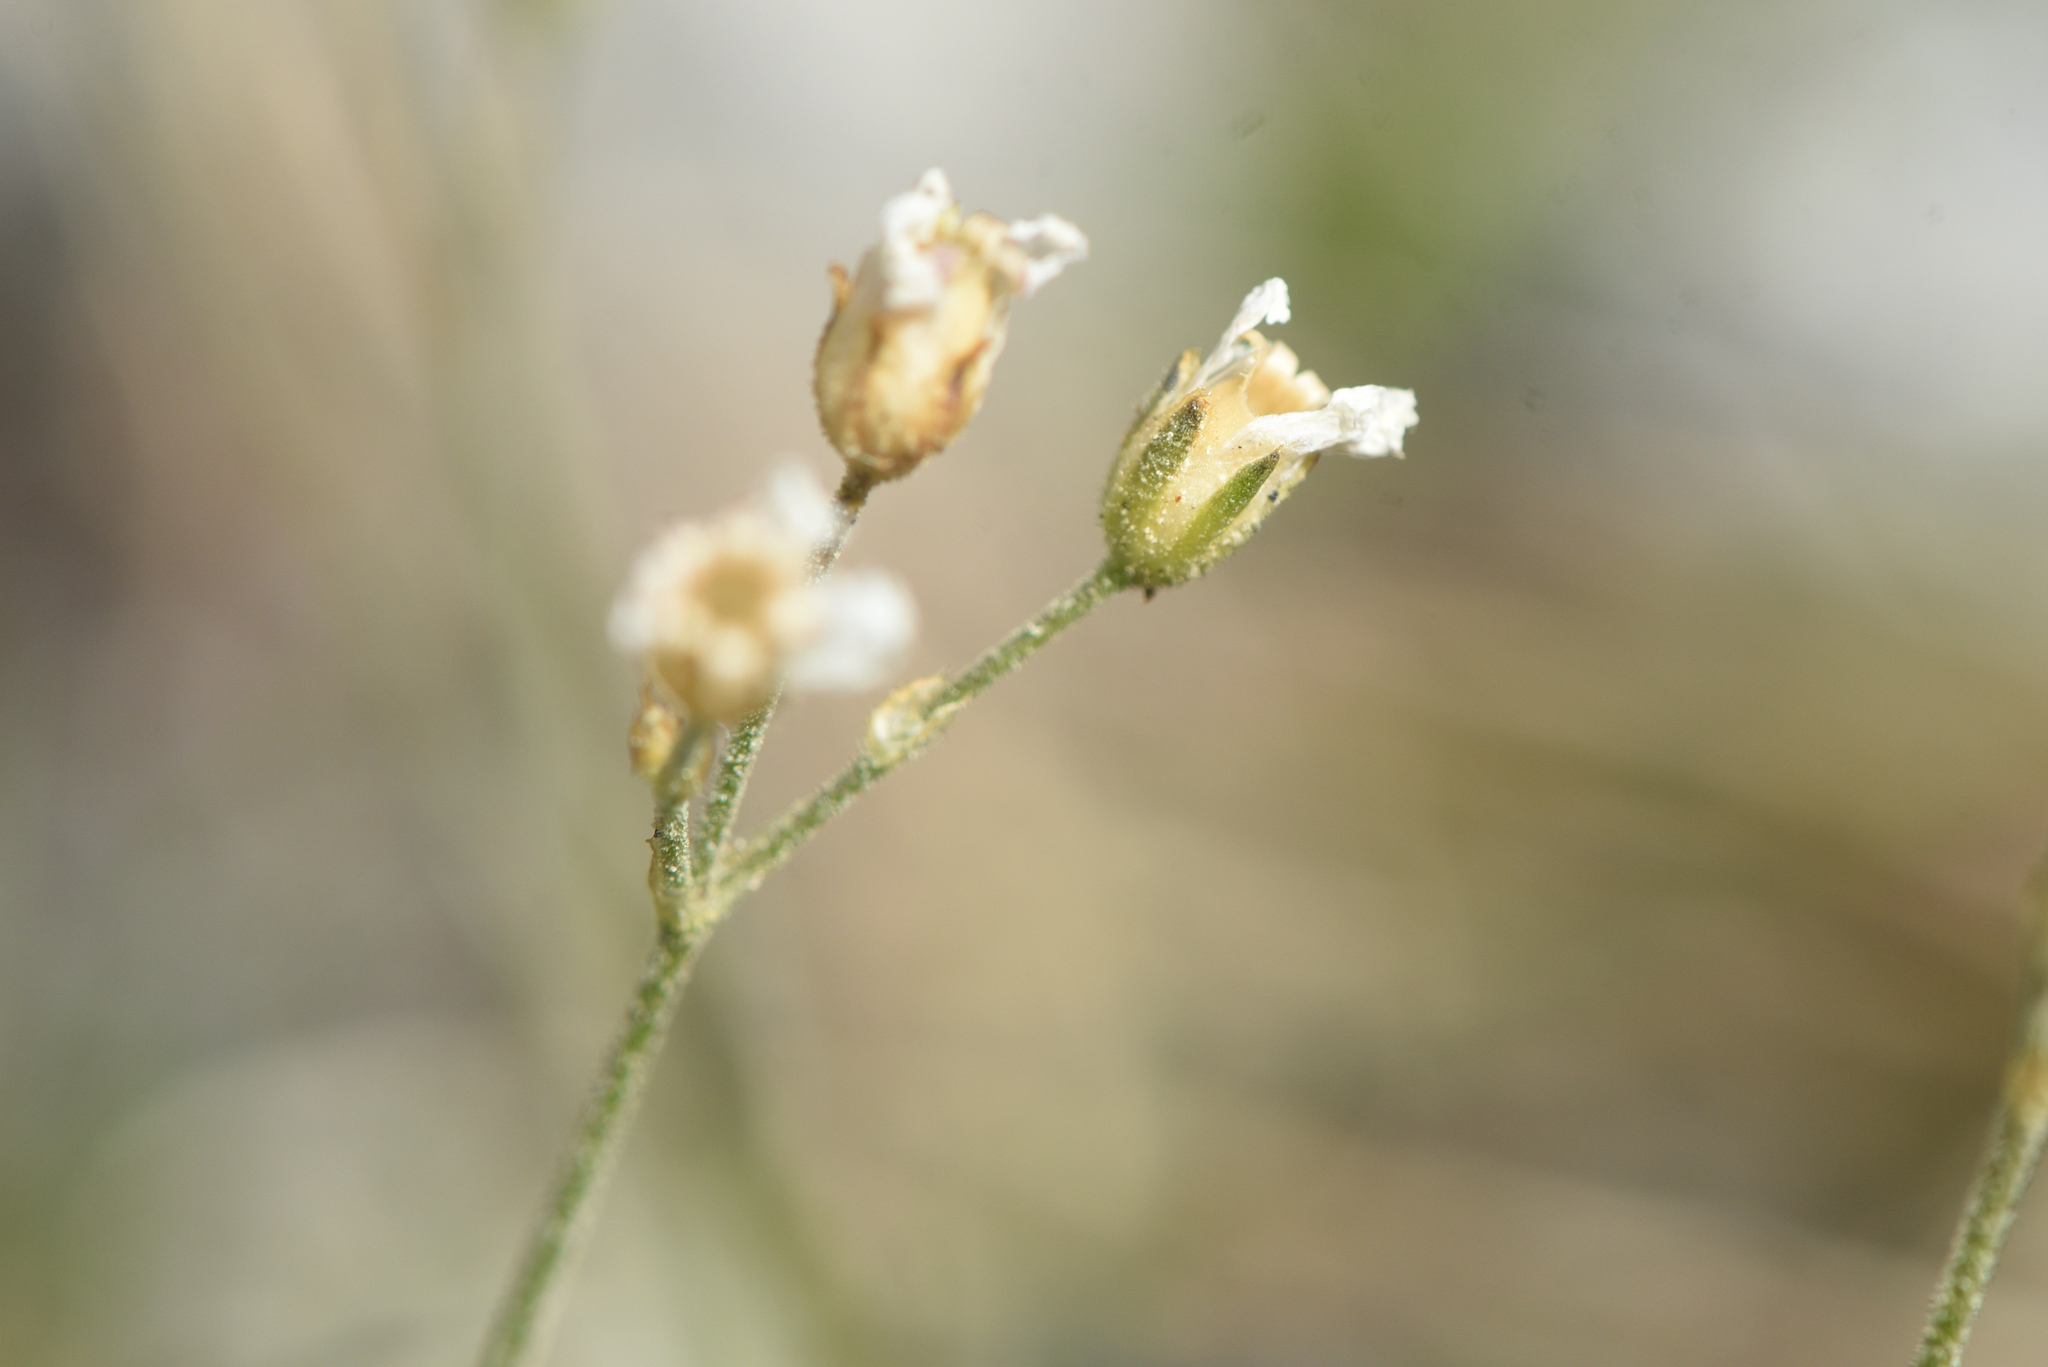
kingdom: Plantae
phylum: Tracheophyta
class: Magnoliopsida
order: Caryophyllales
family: Caryophyllaceae
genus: Eremogone
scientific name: Eremogone capillaris
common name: Slender mountain sandwort
